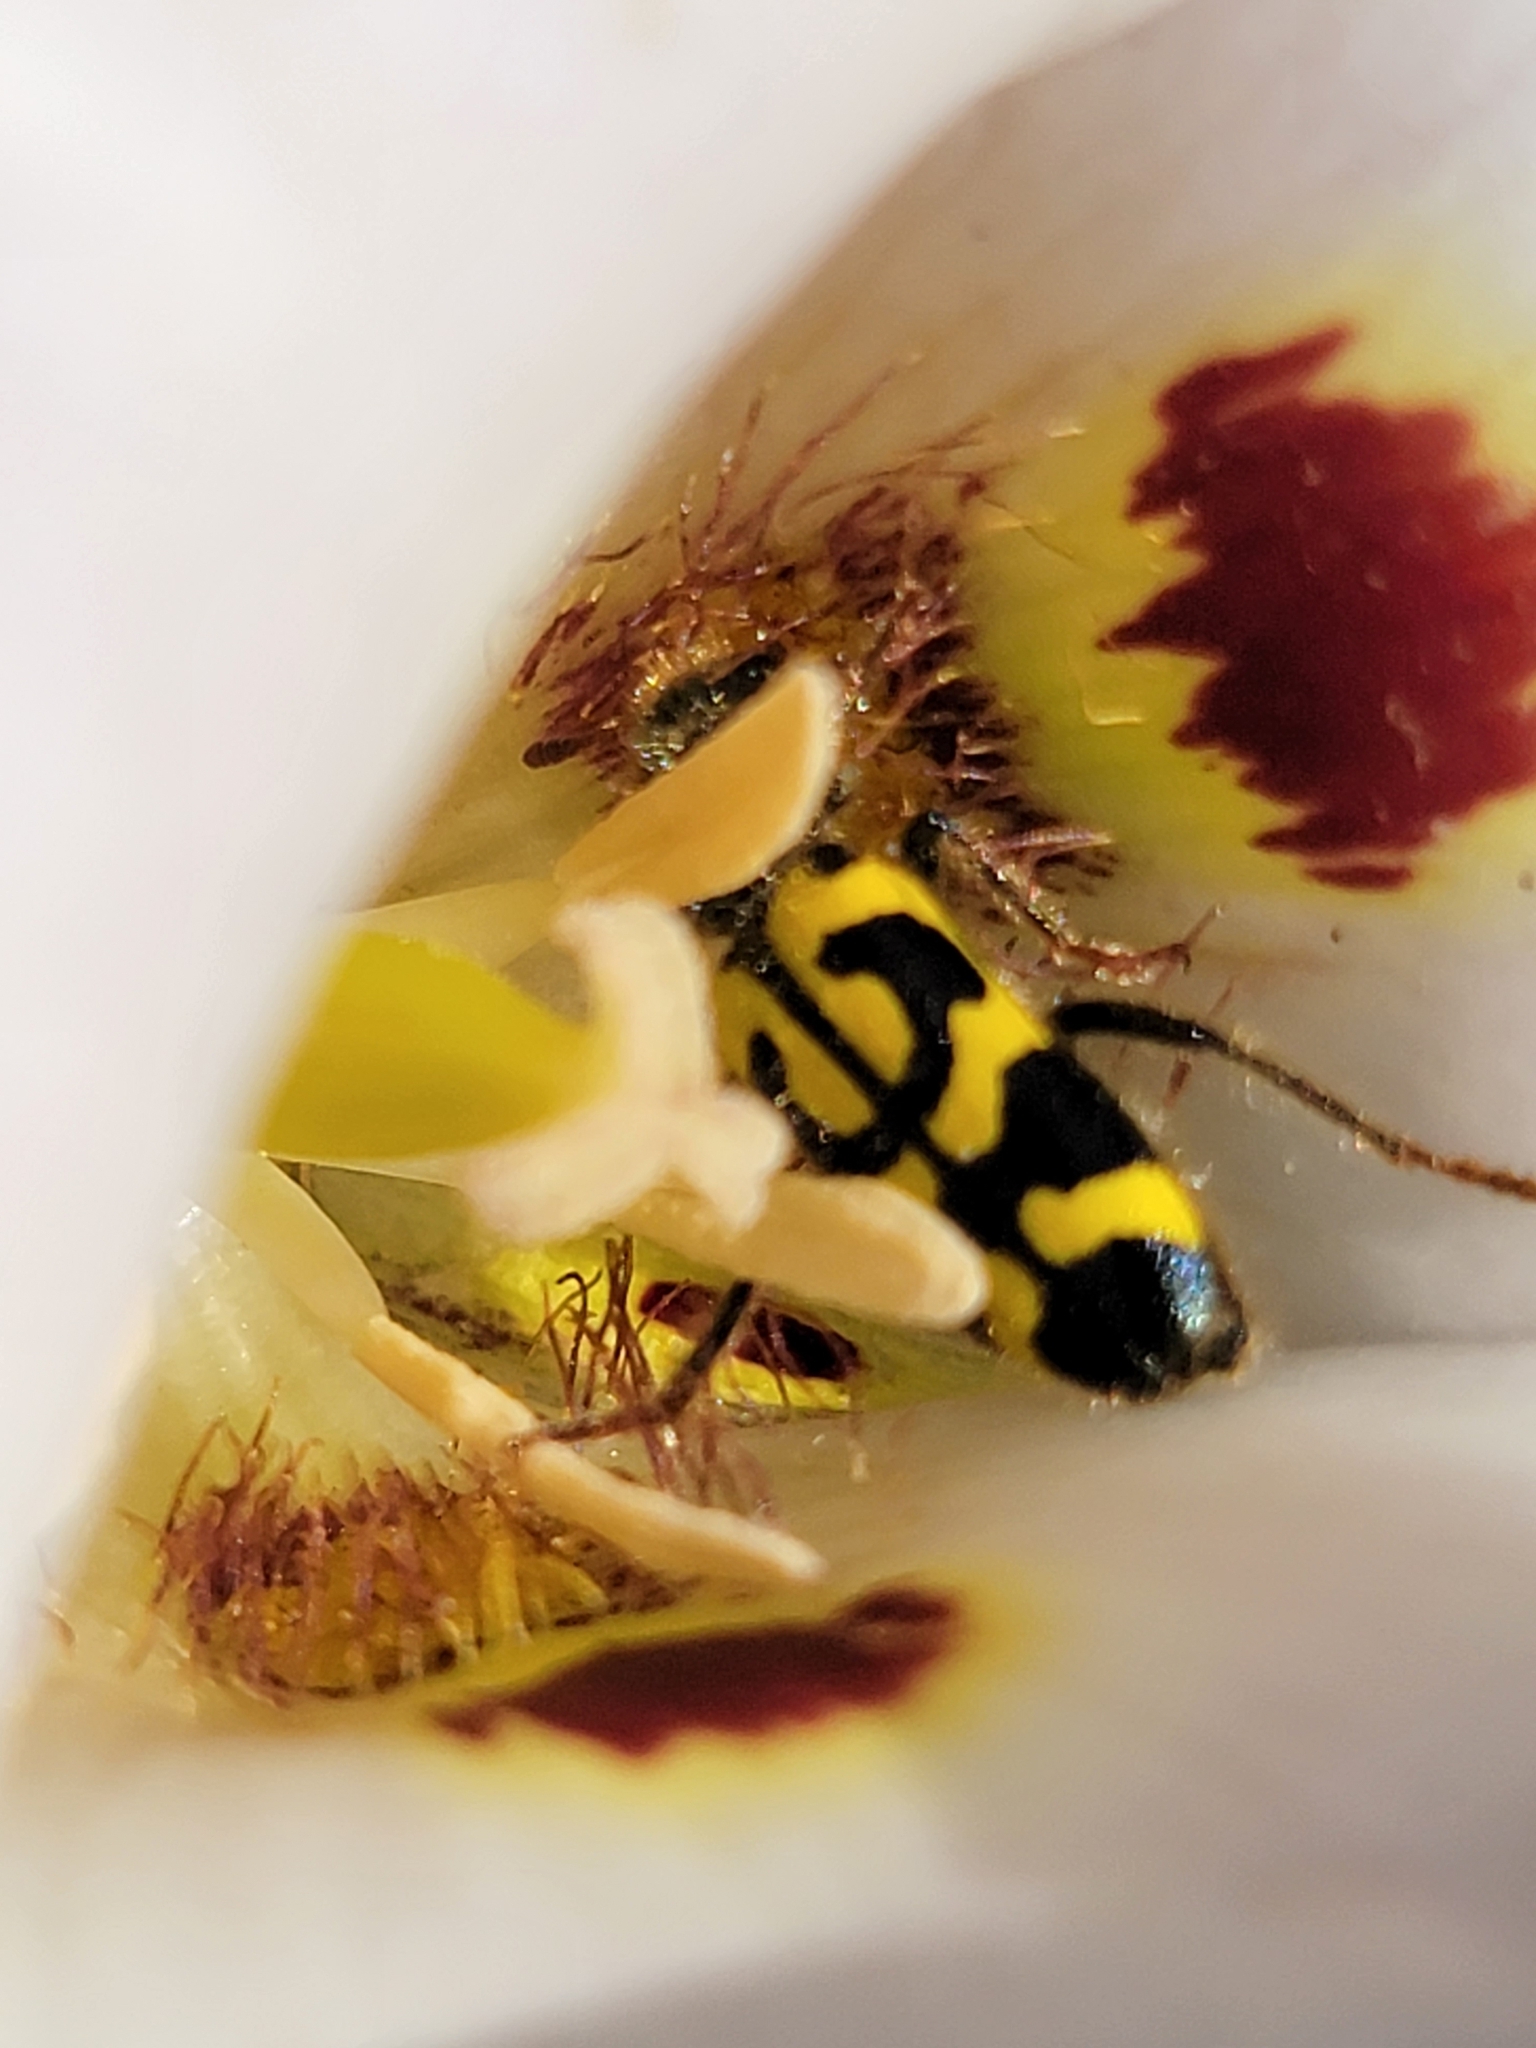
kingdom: Animalia
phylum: Arthropoda
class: Insecta
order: Coleoptera
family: Cleridae
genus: Trichodes
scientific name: Trichodes ornatus
